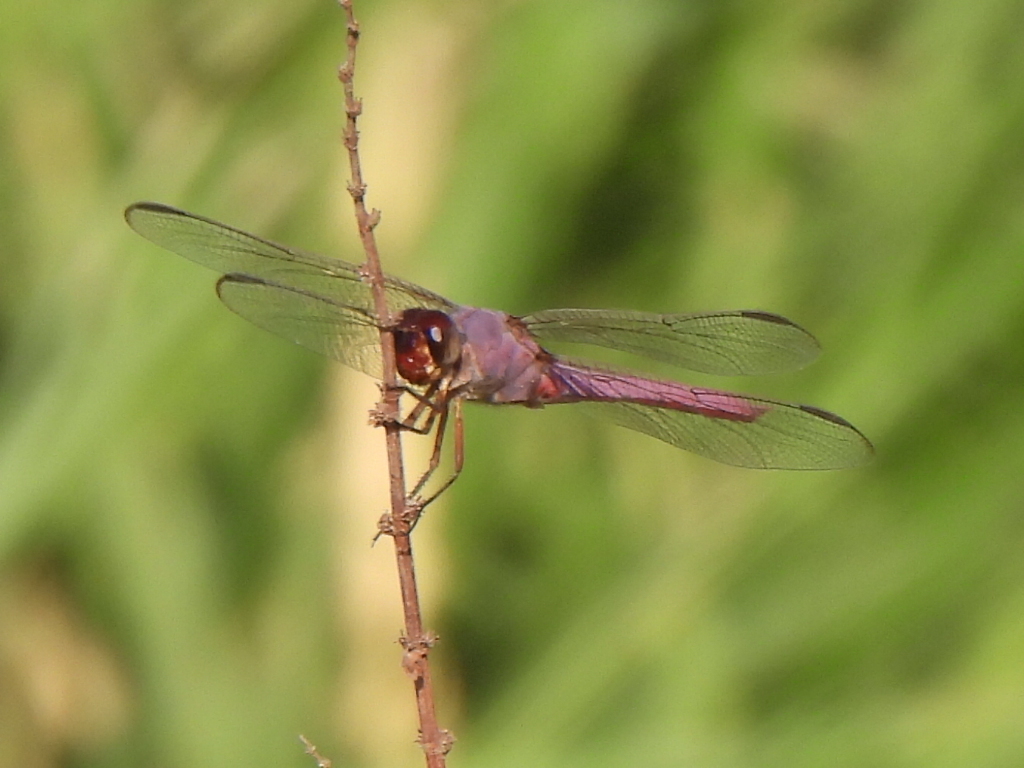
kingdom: Animalia
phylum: Arthropoda
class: Insecta
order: Odonata
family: Libellulidae
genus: Orthemis
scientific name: Orthemis ferruginea
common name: Roseate skimmer
